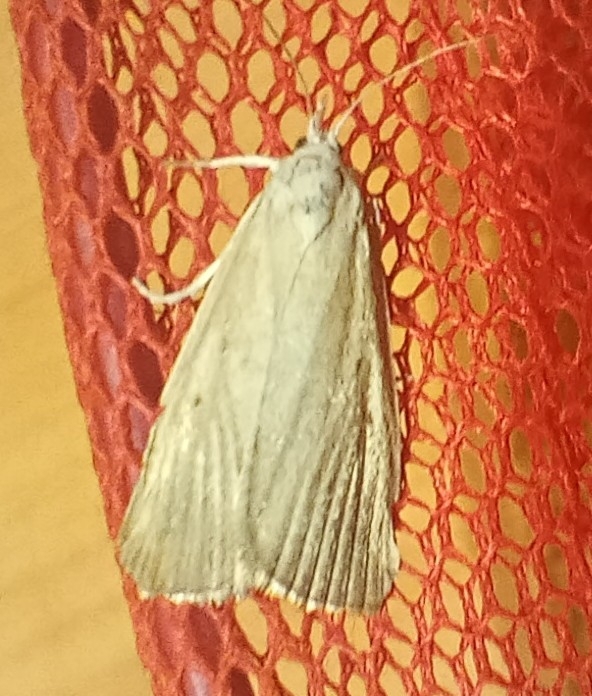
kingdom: Animalia
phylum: Arthropoda
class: Insecta
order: Lepidoptera
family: Crambidae
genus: Calamotropha
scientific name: Calamotropha paludella
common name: Bulrush veneer
